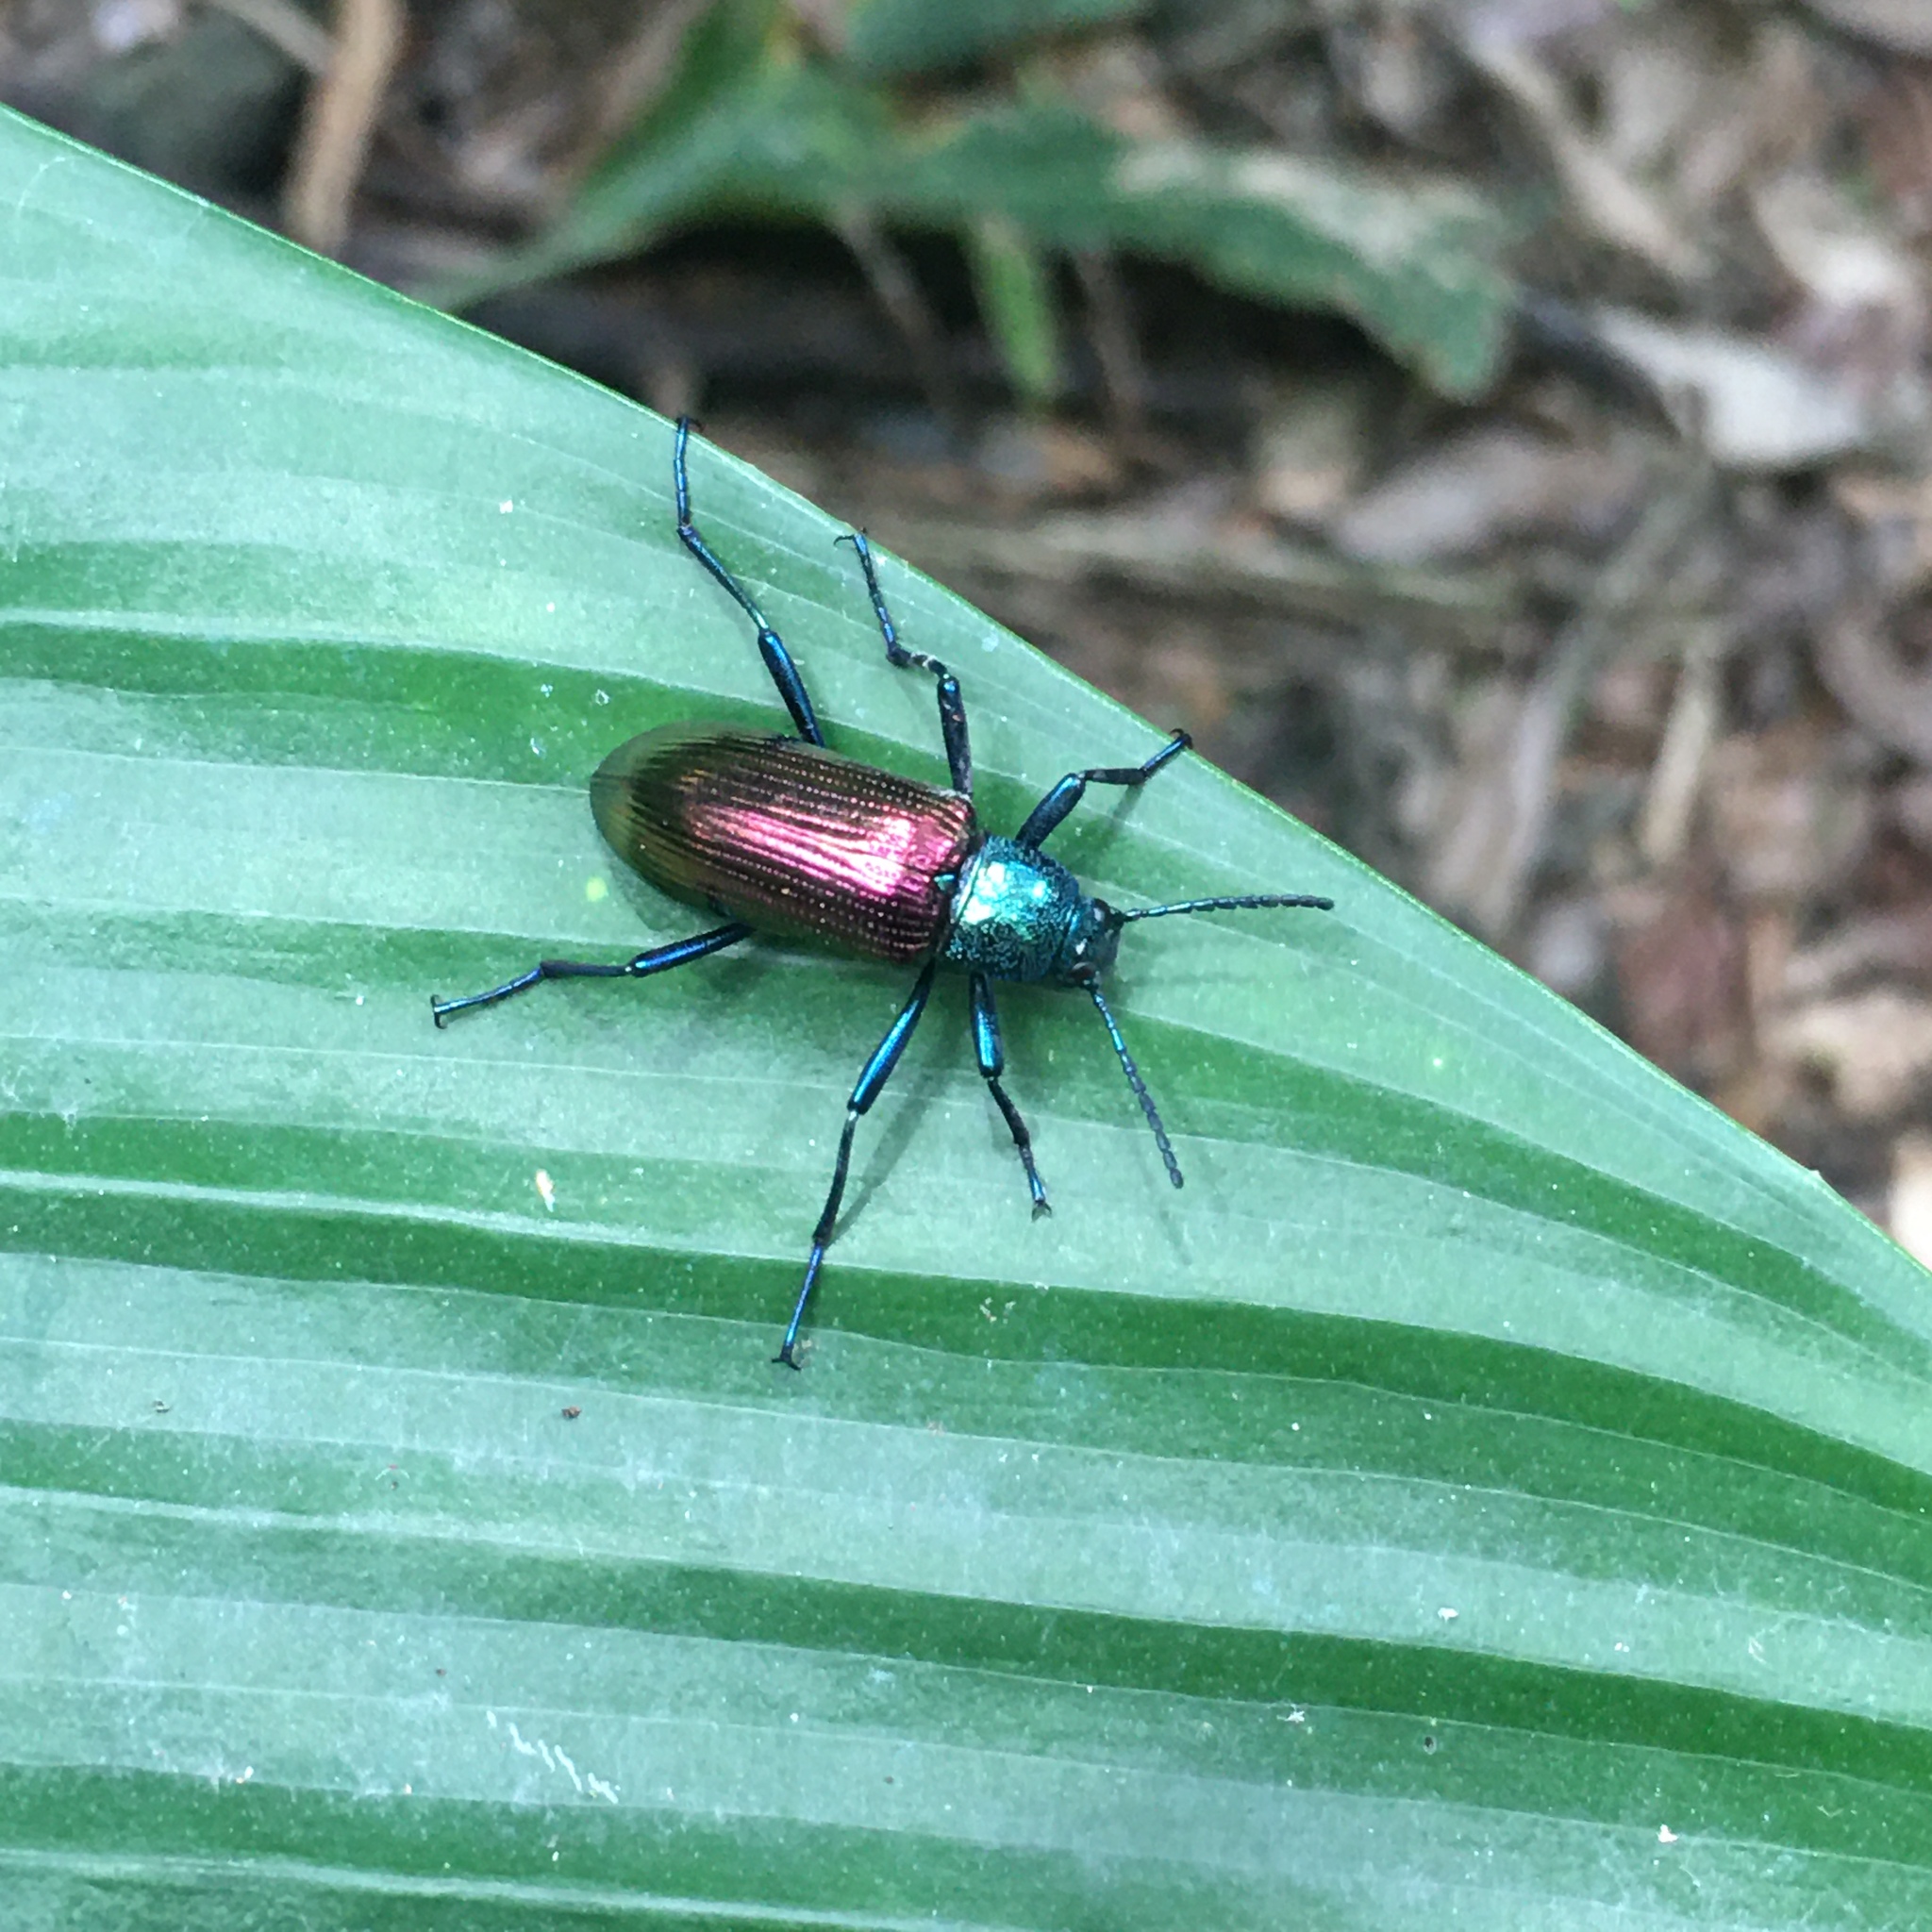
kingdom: Animalia
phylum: Arthropoda
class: Insecta
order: Coleoptera
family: Tenebrionidae
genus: Strongylium
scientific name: Strongylium
